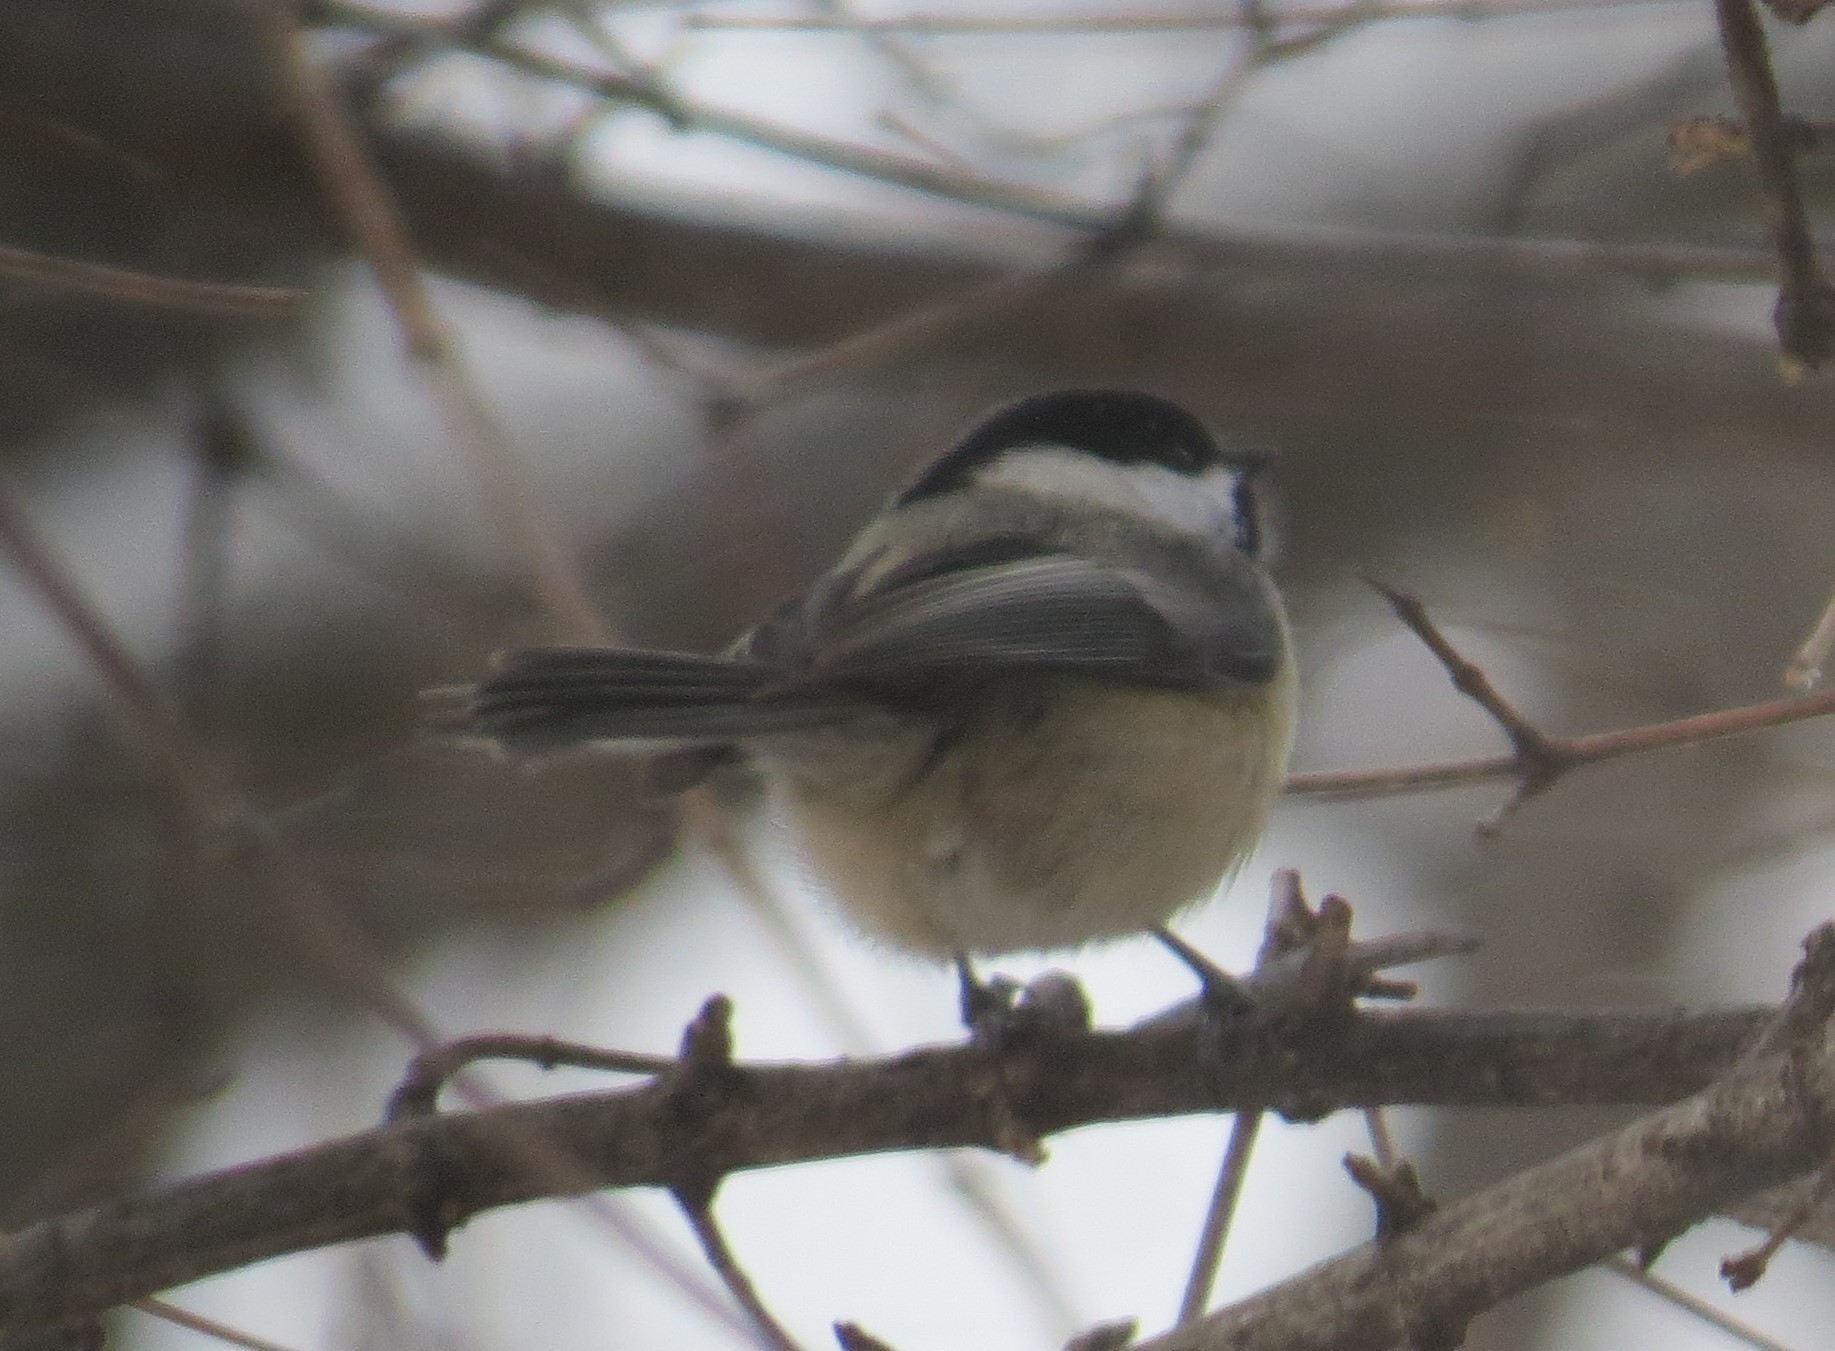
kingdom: Animalia
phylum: Chordata
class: Aves
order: Passeriformes
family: Paridae
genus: Poecile
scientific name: Poecile atricapillus
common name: Black-capped chickadee
